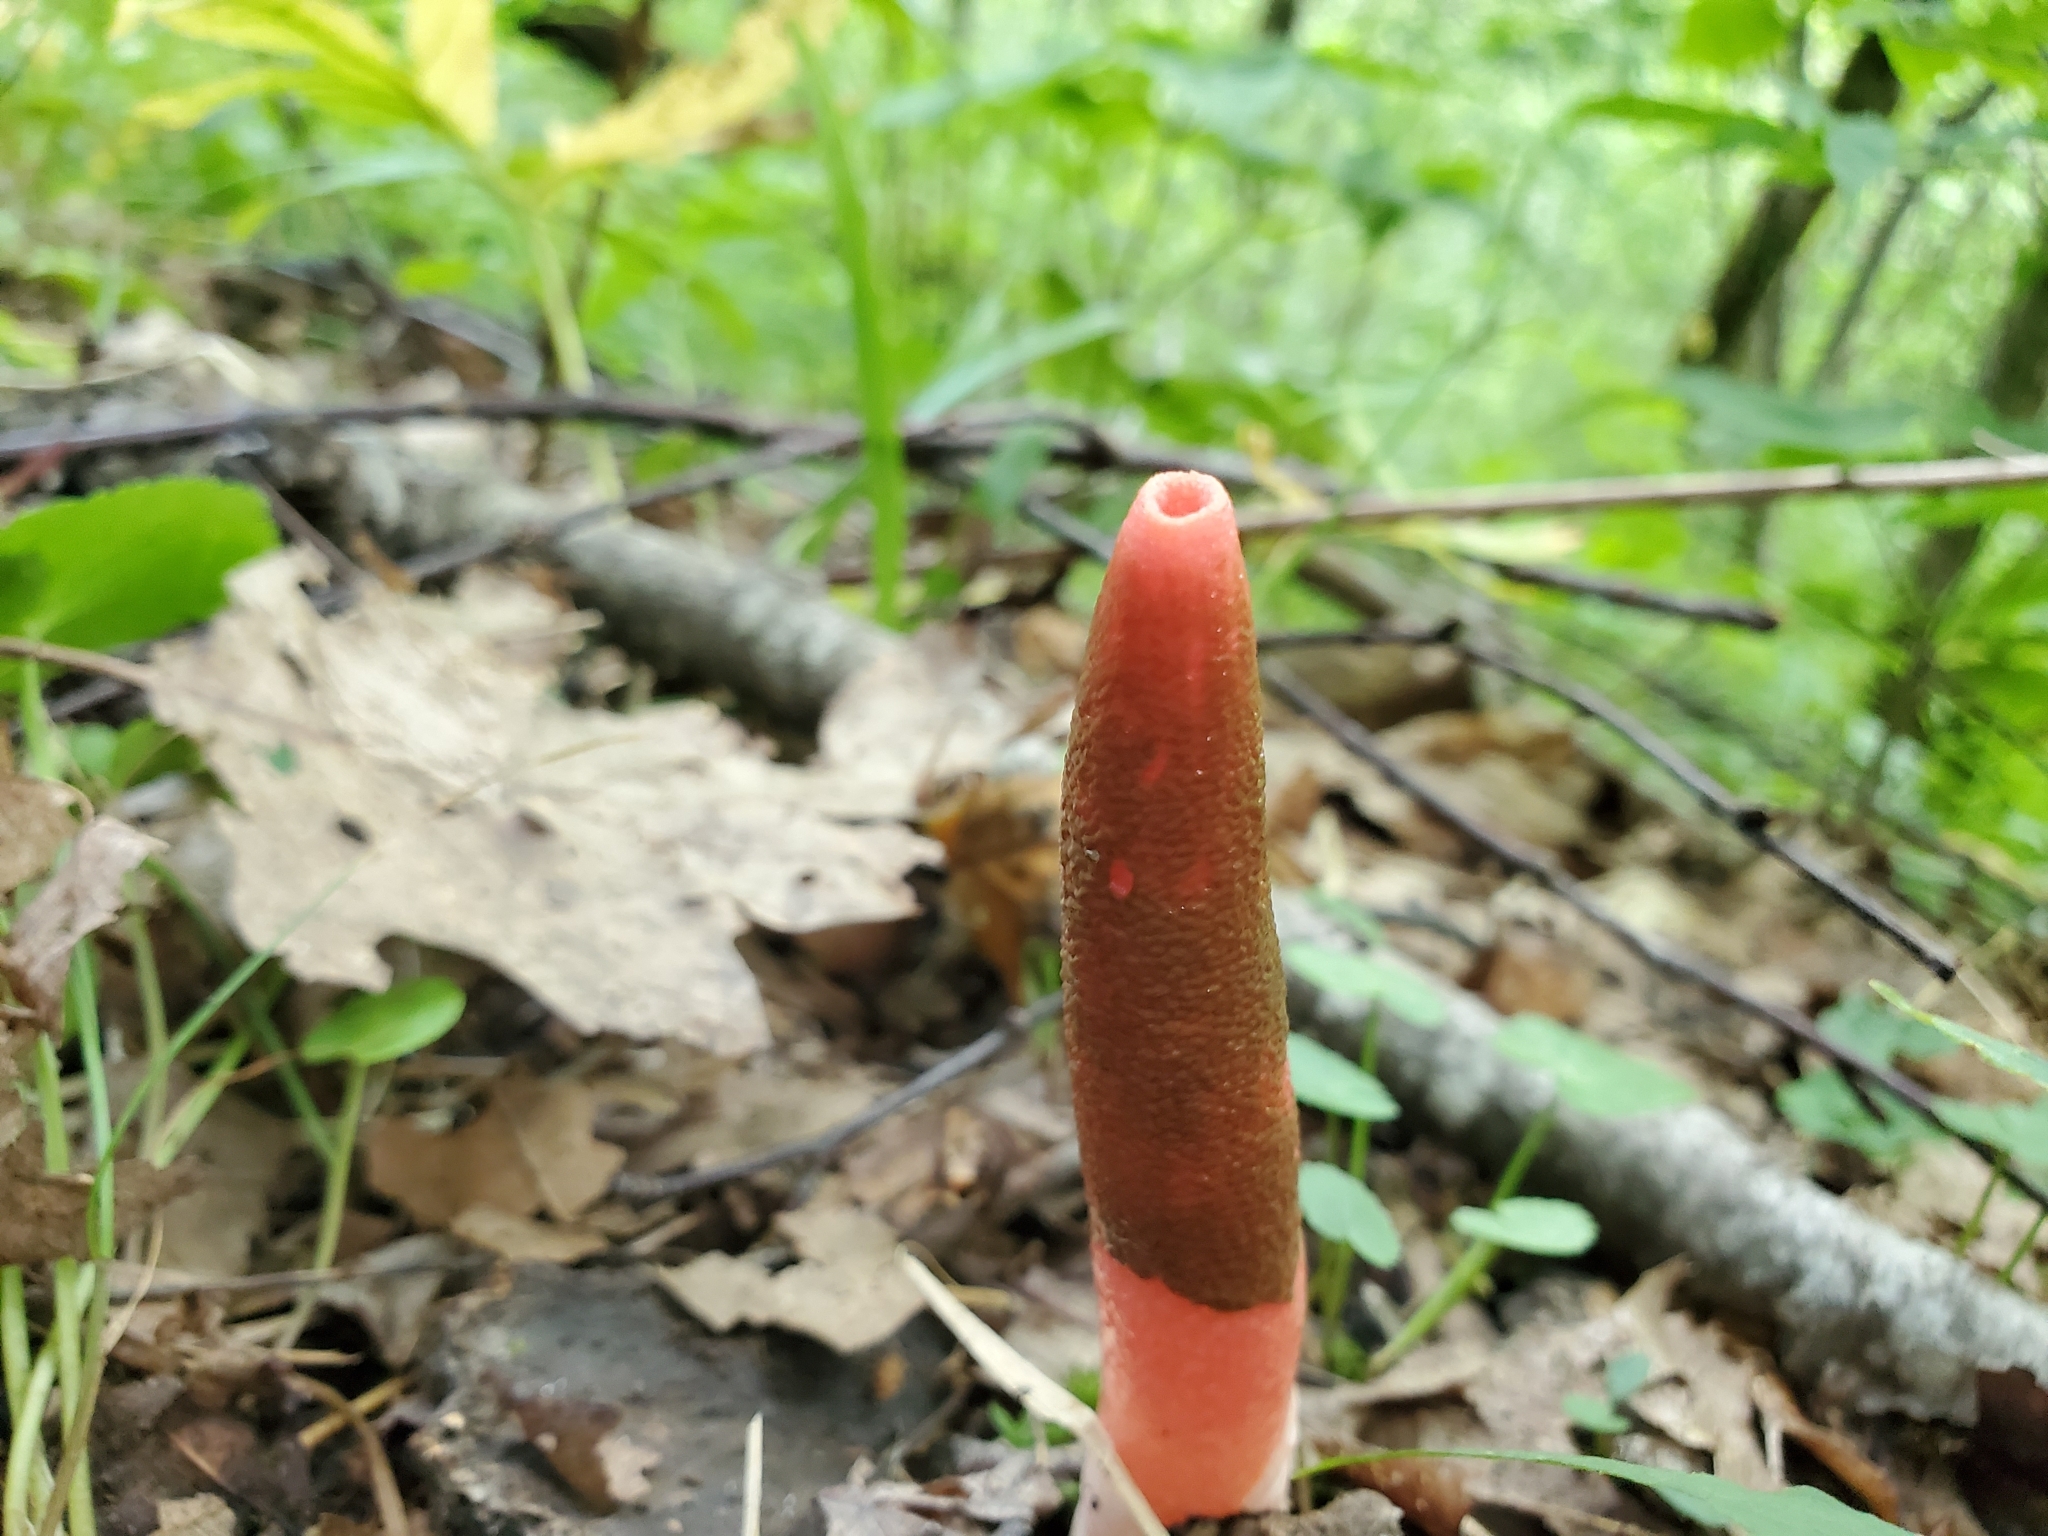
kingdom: Fungi
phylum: Basidiomycota
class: Agaricomycetes
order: Phallales
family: Phallaceae
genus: Mutinus
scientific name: Mutinus elegans
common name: Devil's dipstick
